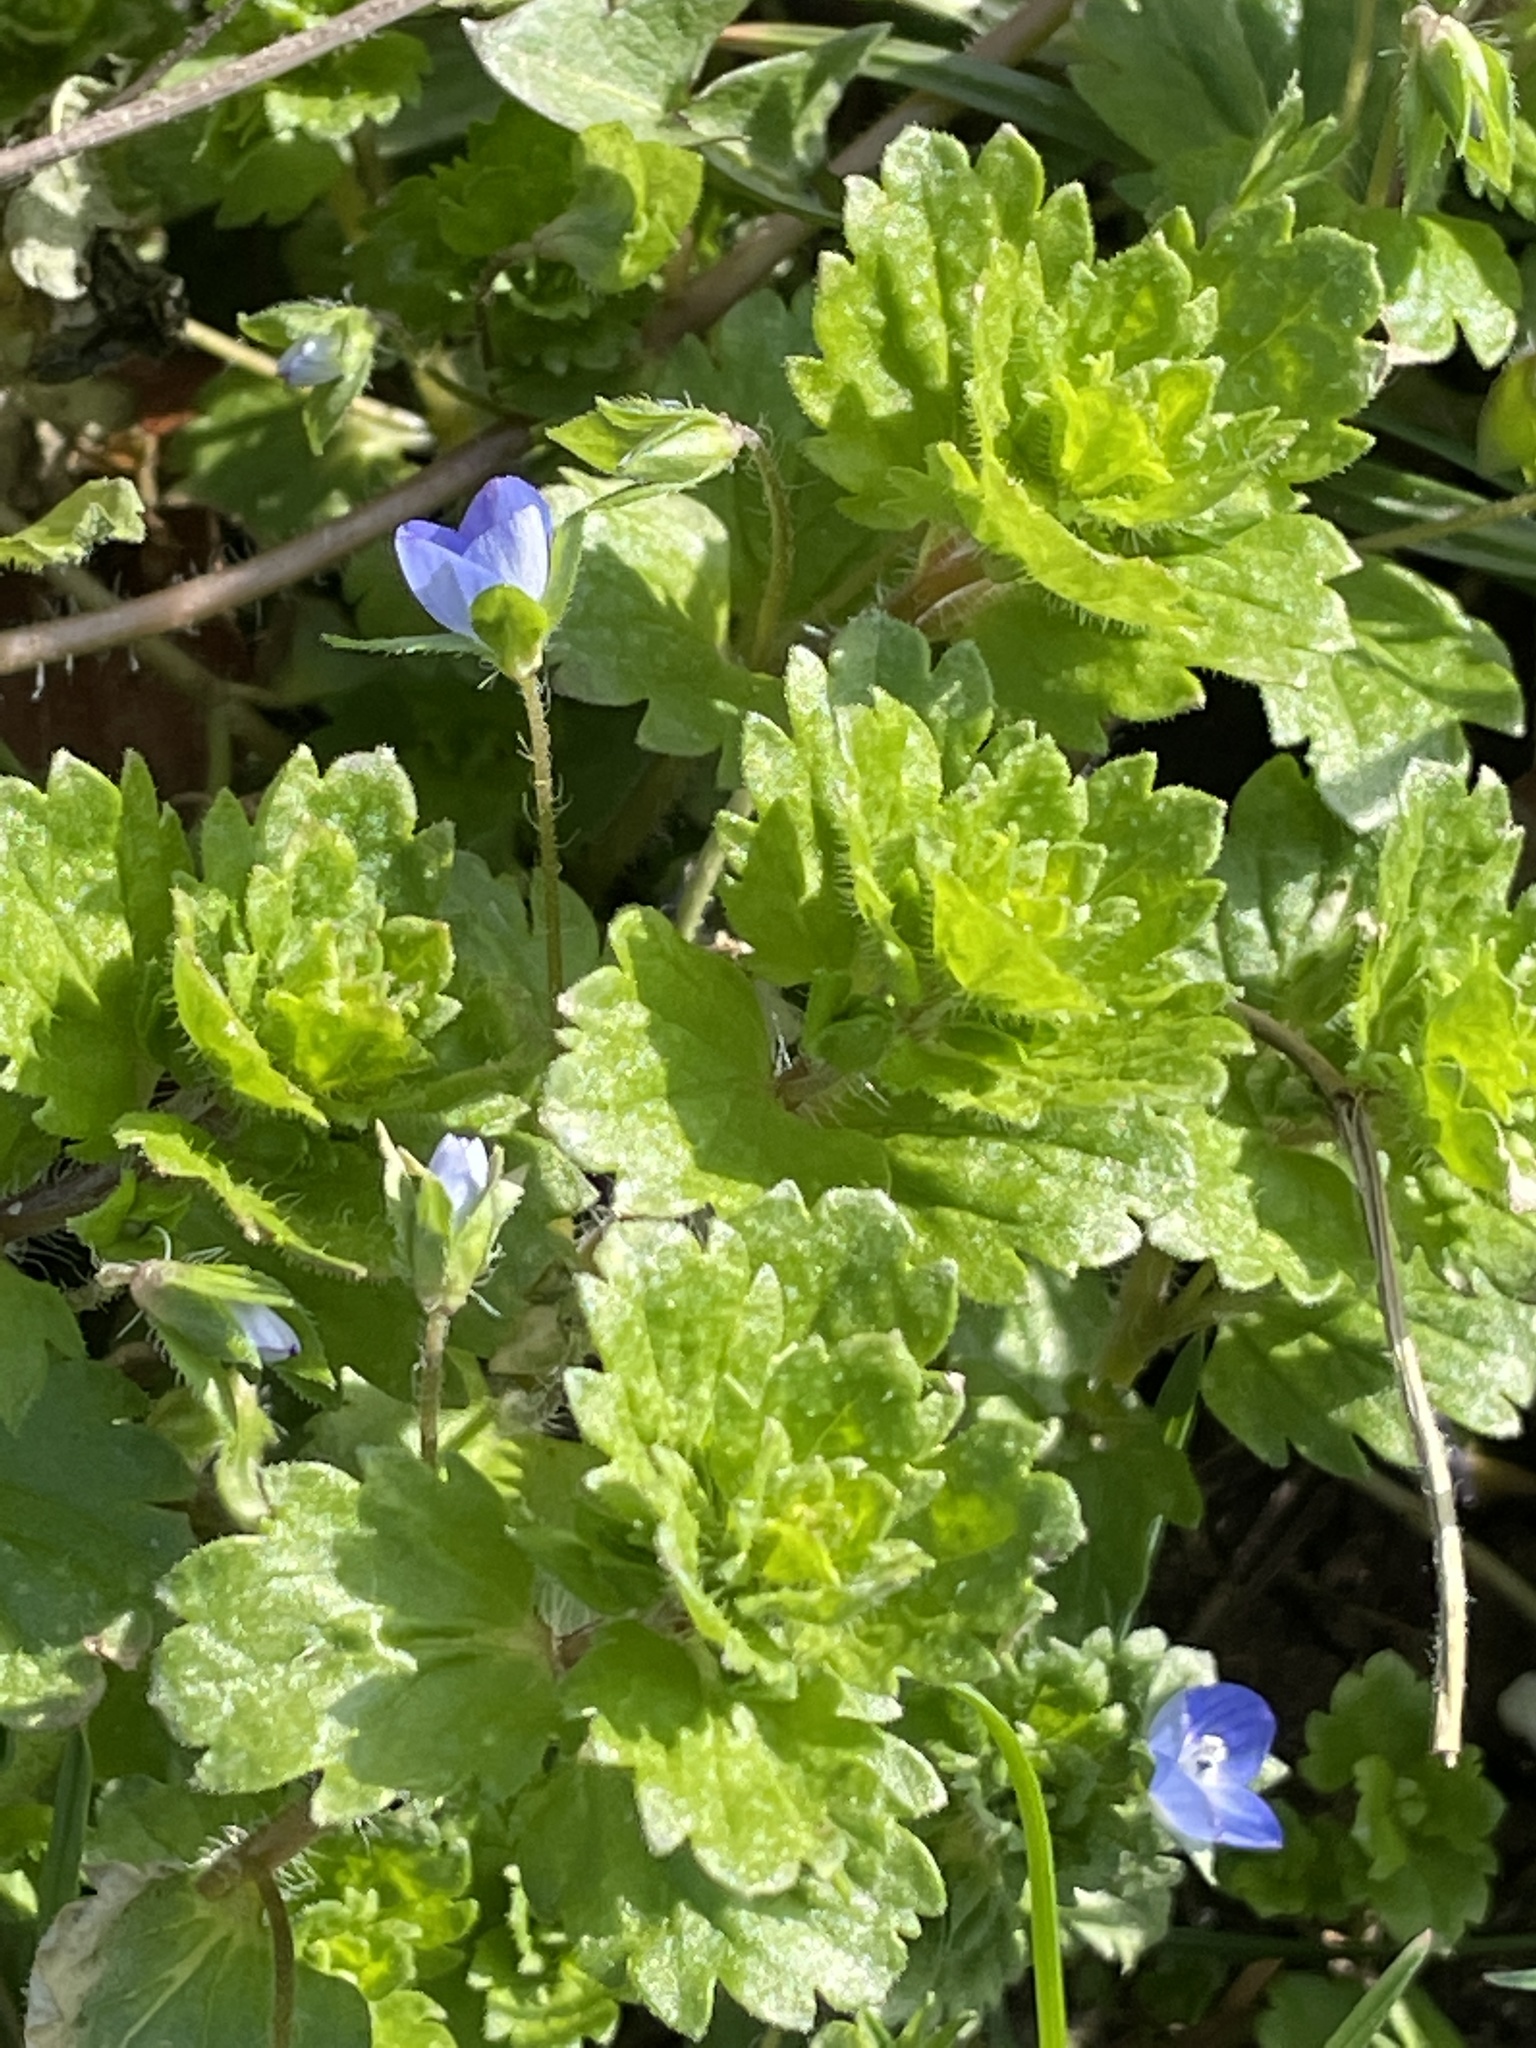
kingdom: Plantae
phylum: Tracheophyta
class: Magnoliopsida
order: Lamiales
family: Plantaginaceae
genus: Veronica
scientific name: Veronica persica
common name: Common field-speedwell
